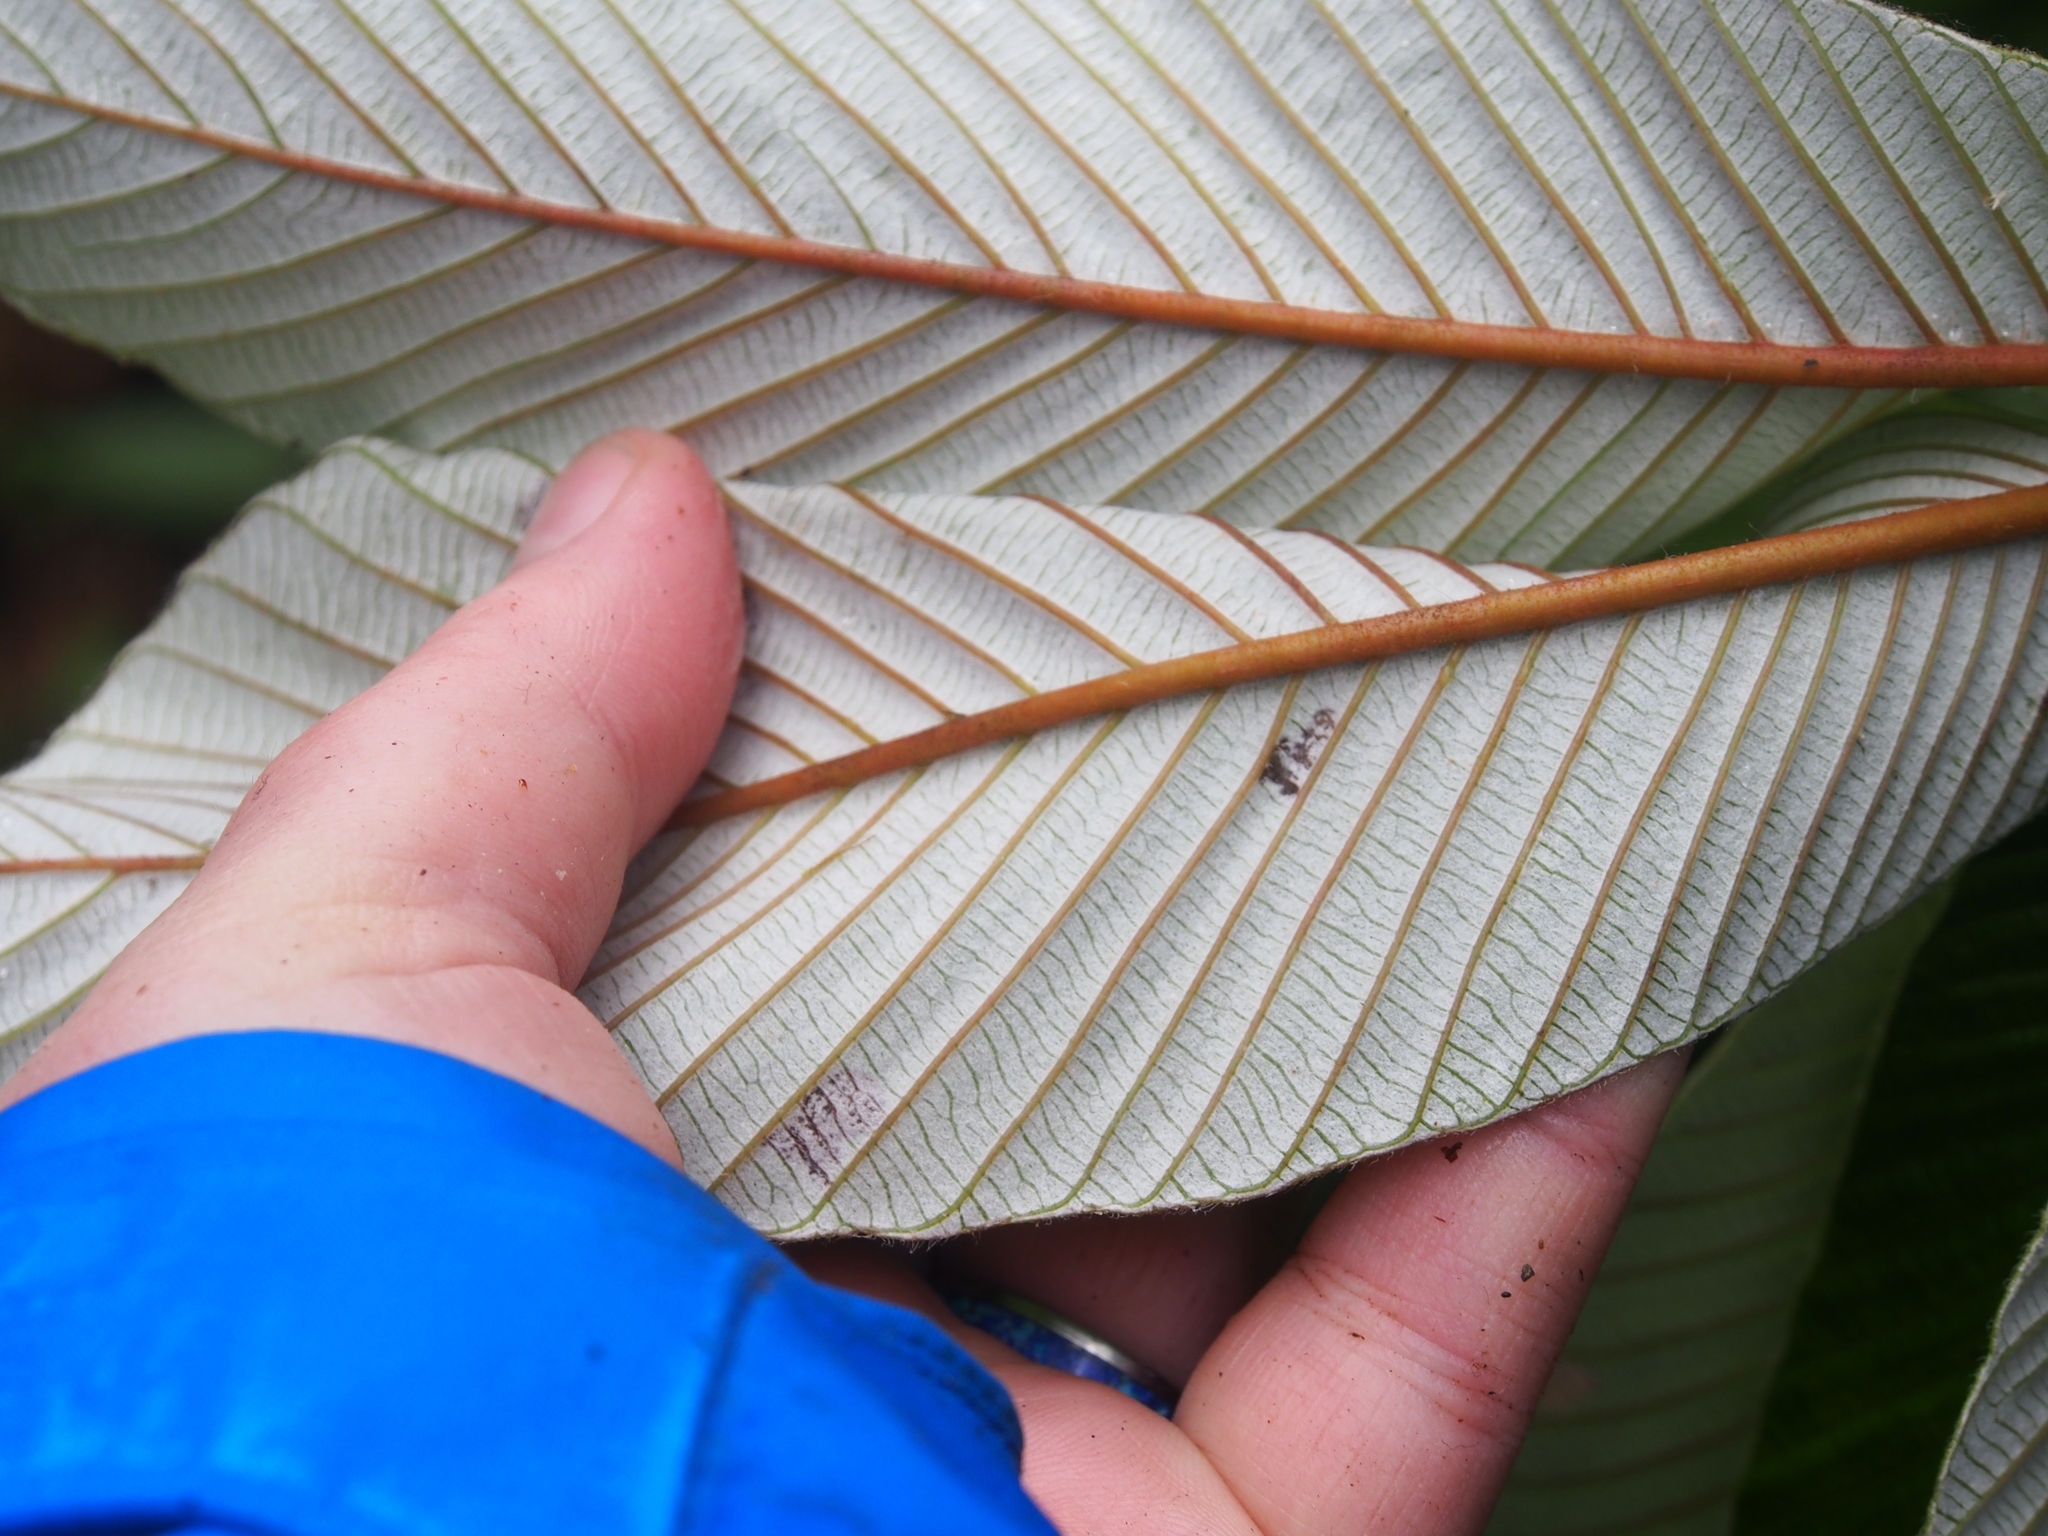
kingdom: Plantae
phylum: Tracheophyta
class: Magnoliopsida
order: Rosales
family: Urticaceae
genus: Cecropia
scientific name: Cecropia angustifolia
